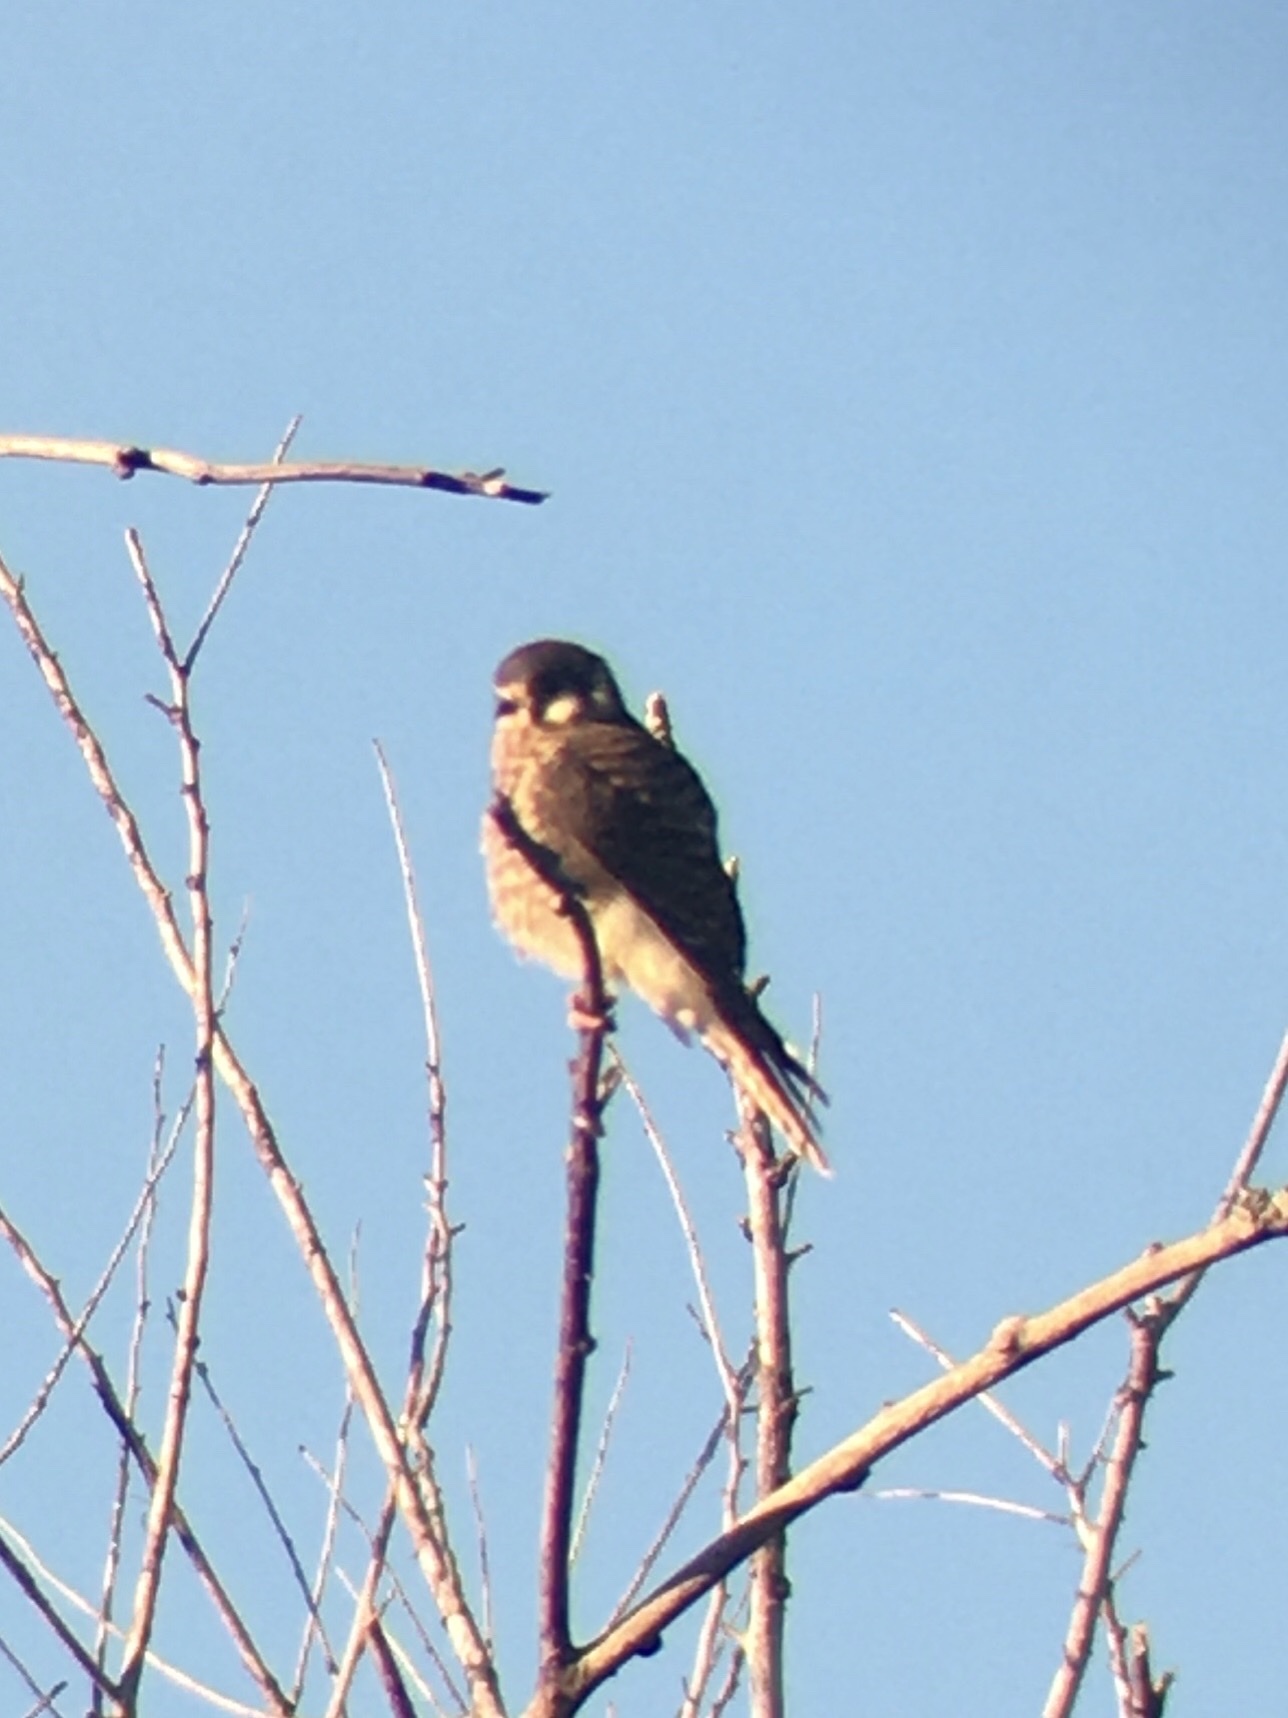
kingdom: Animalia
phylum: Chordata
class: Aves
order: Falconiformes
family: Falconidae
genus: Falco
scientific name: Falco sparverius
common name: American kestrel
